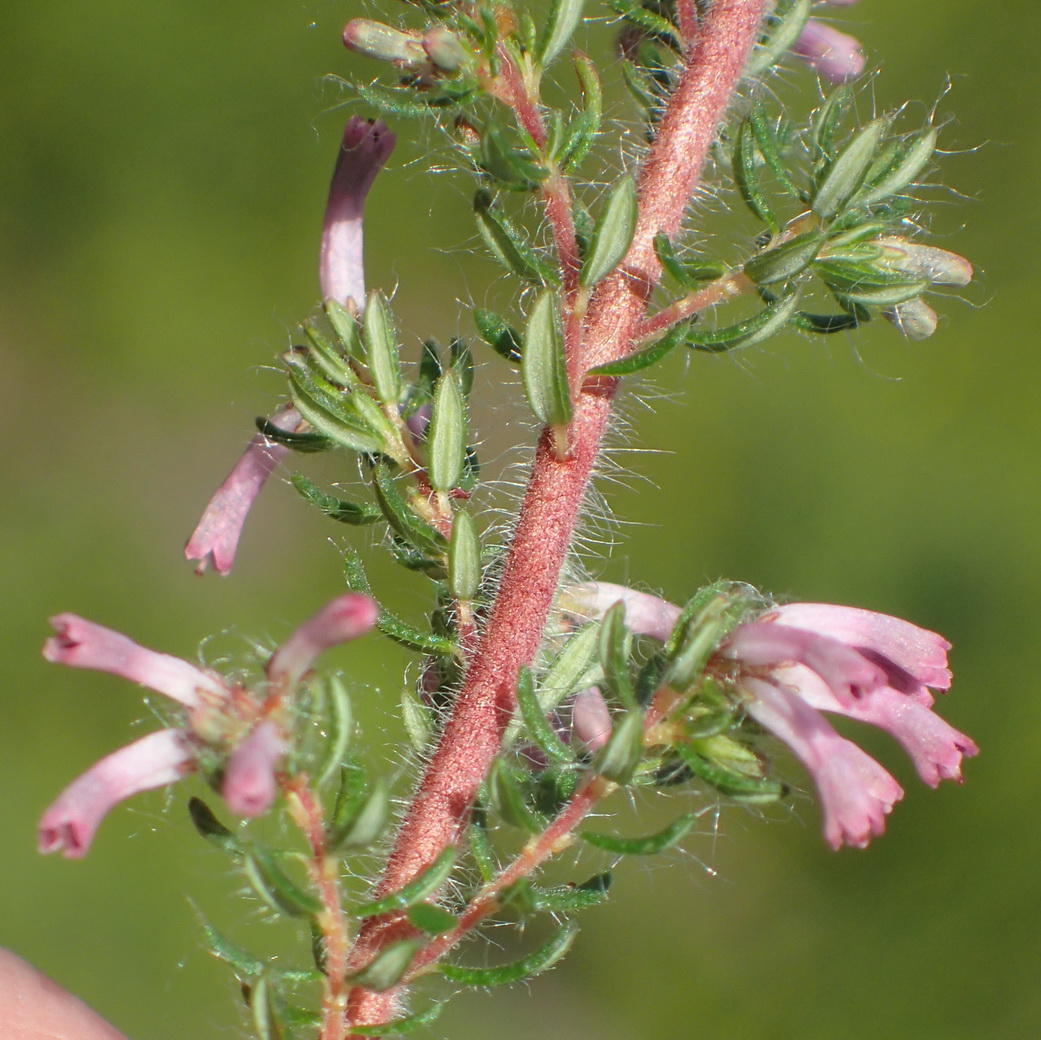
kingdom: Plantae
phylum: Tracheophyta
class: Magnoliopsida
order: Ericales
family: Ericaceae
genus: Erica
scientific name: Erica longimontana
